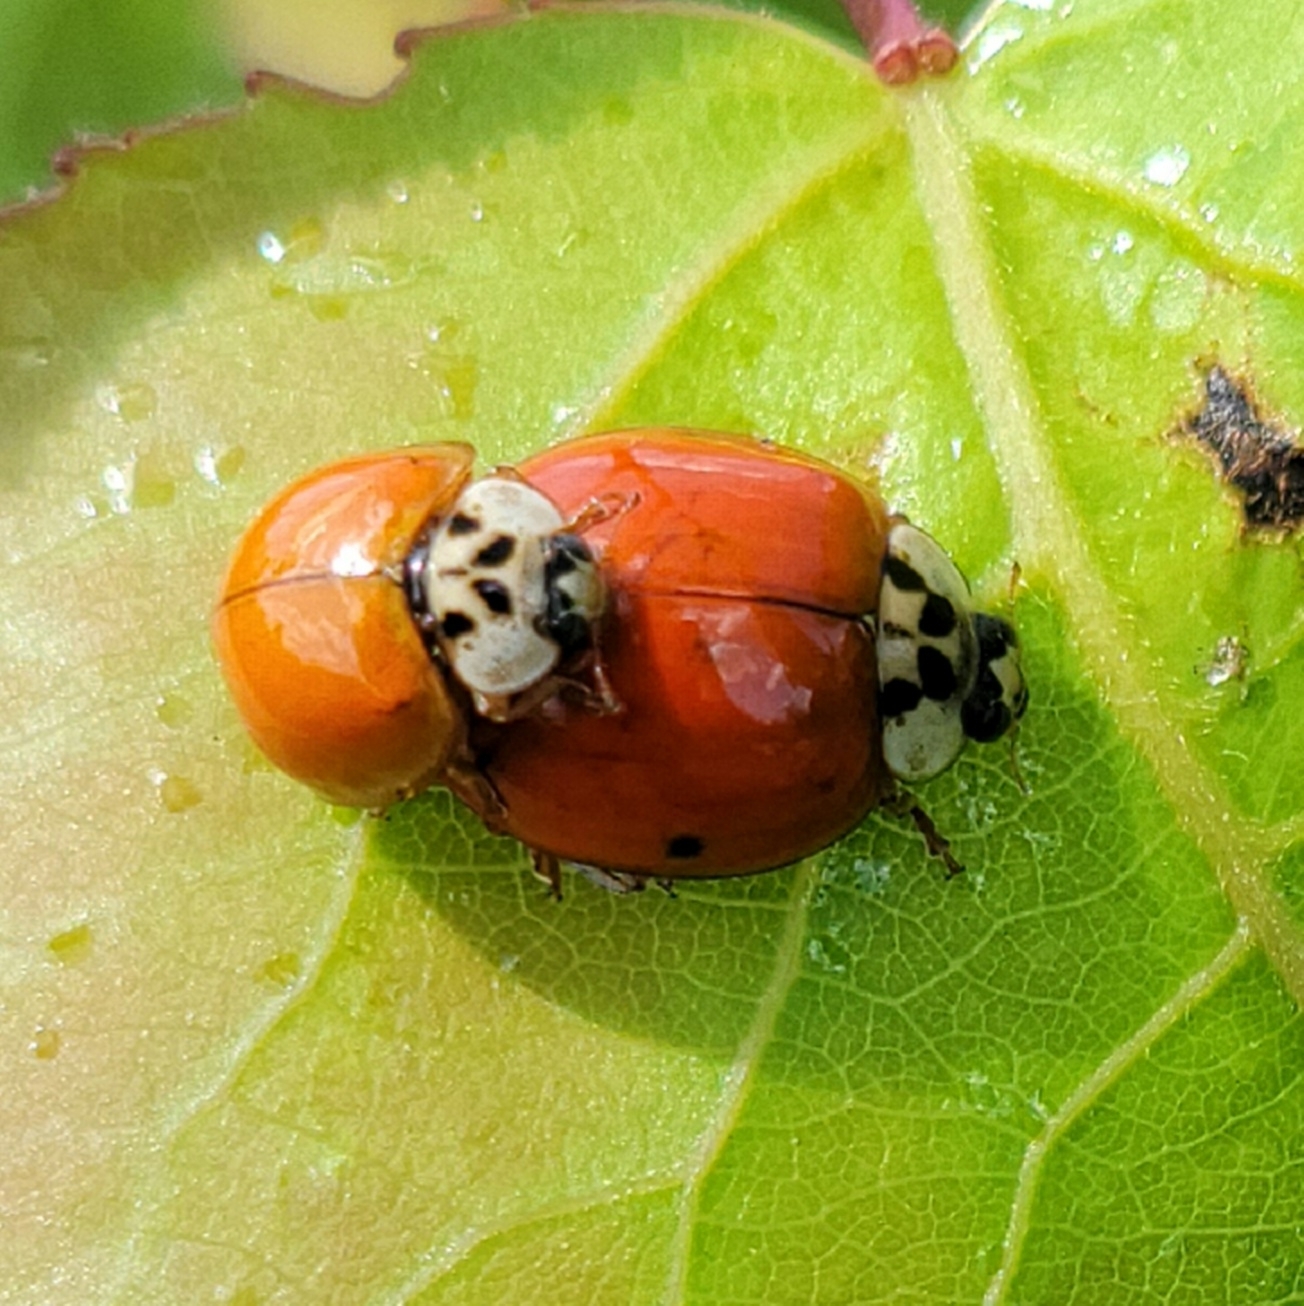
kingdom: Animalia
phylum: Arthropoda
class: Insecta
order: Coleoptera
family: Coccinellidae
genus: Harmonia
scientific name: Harmonia axyridis
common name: Harlequin ladybird
